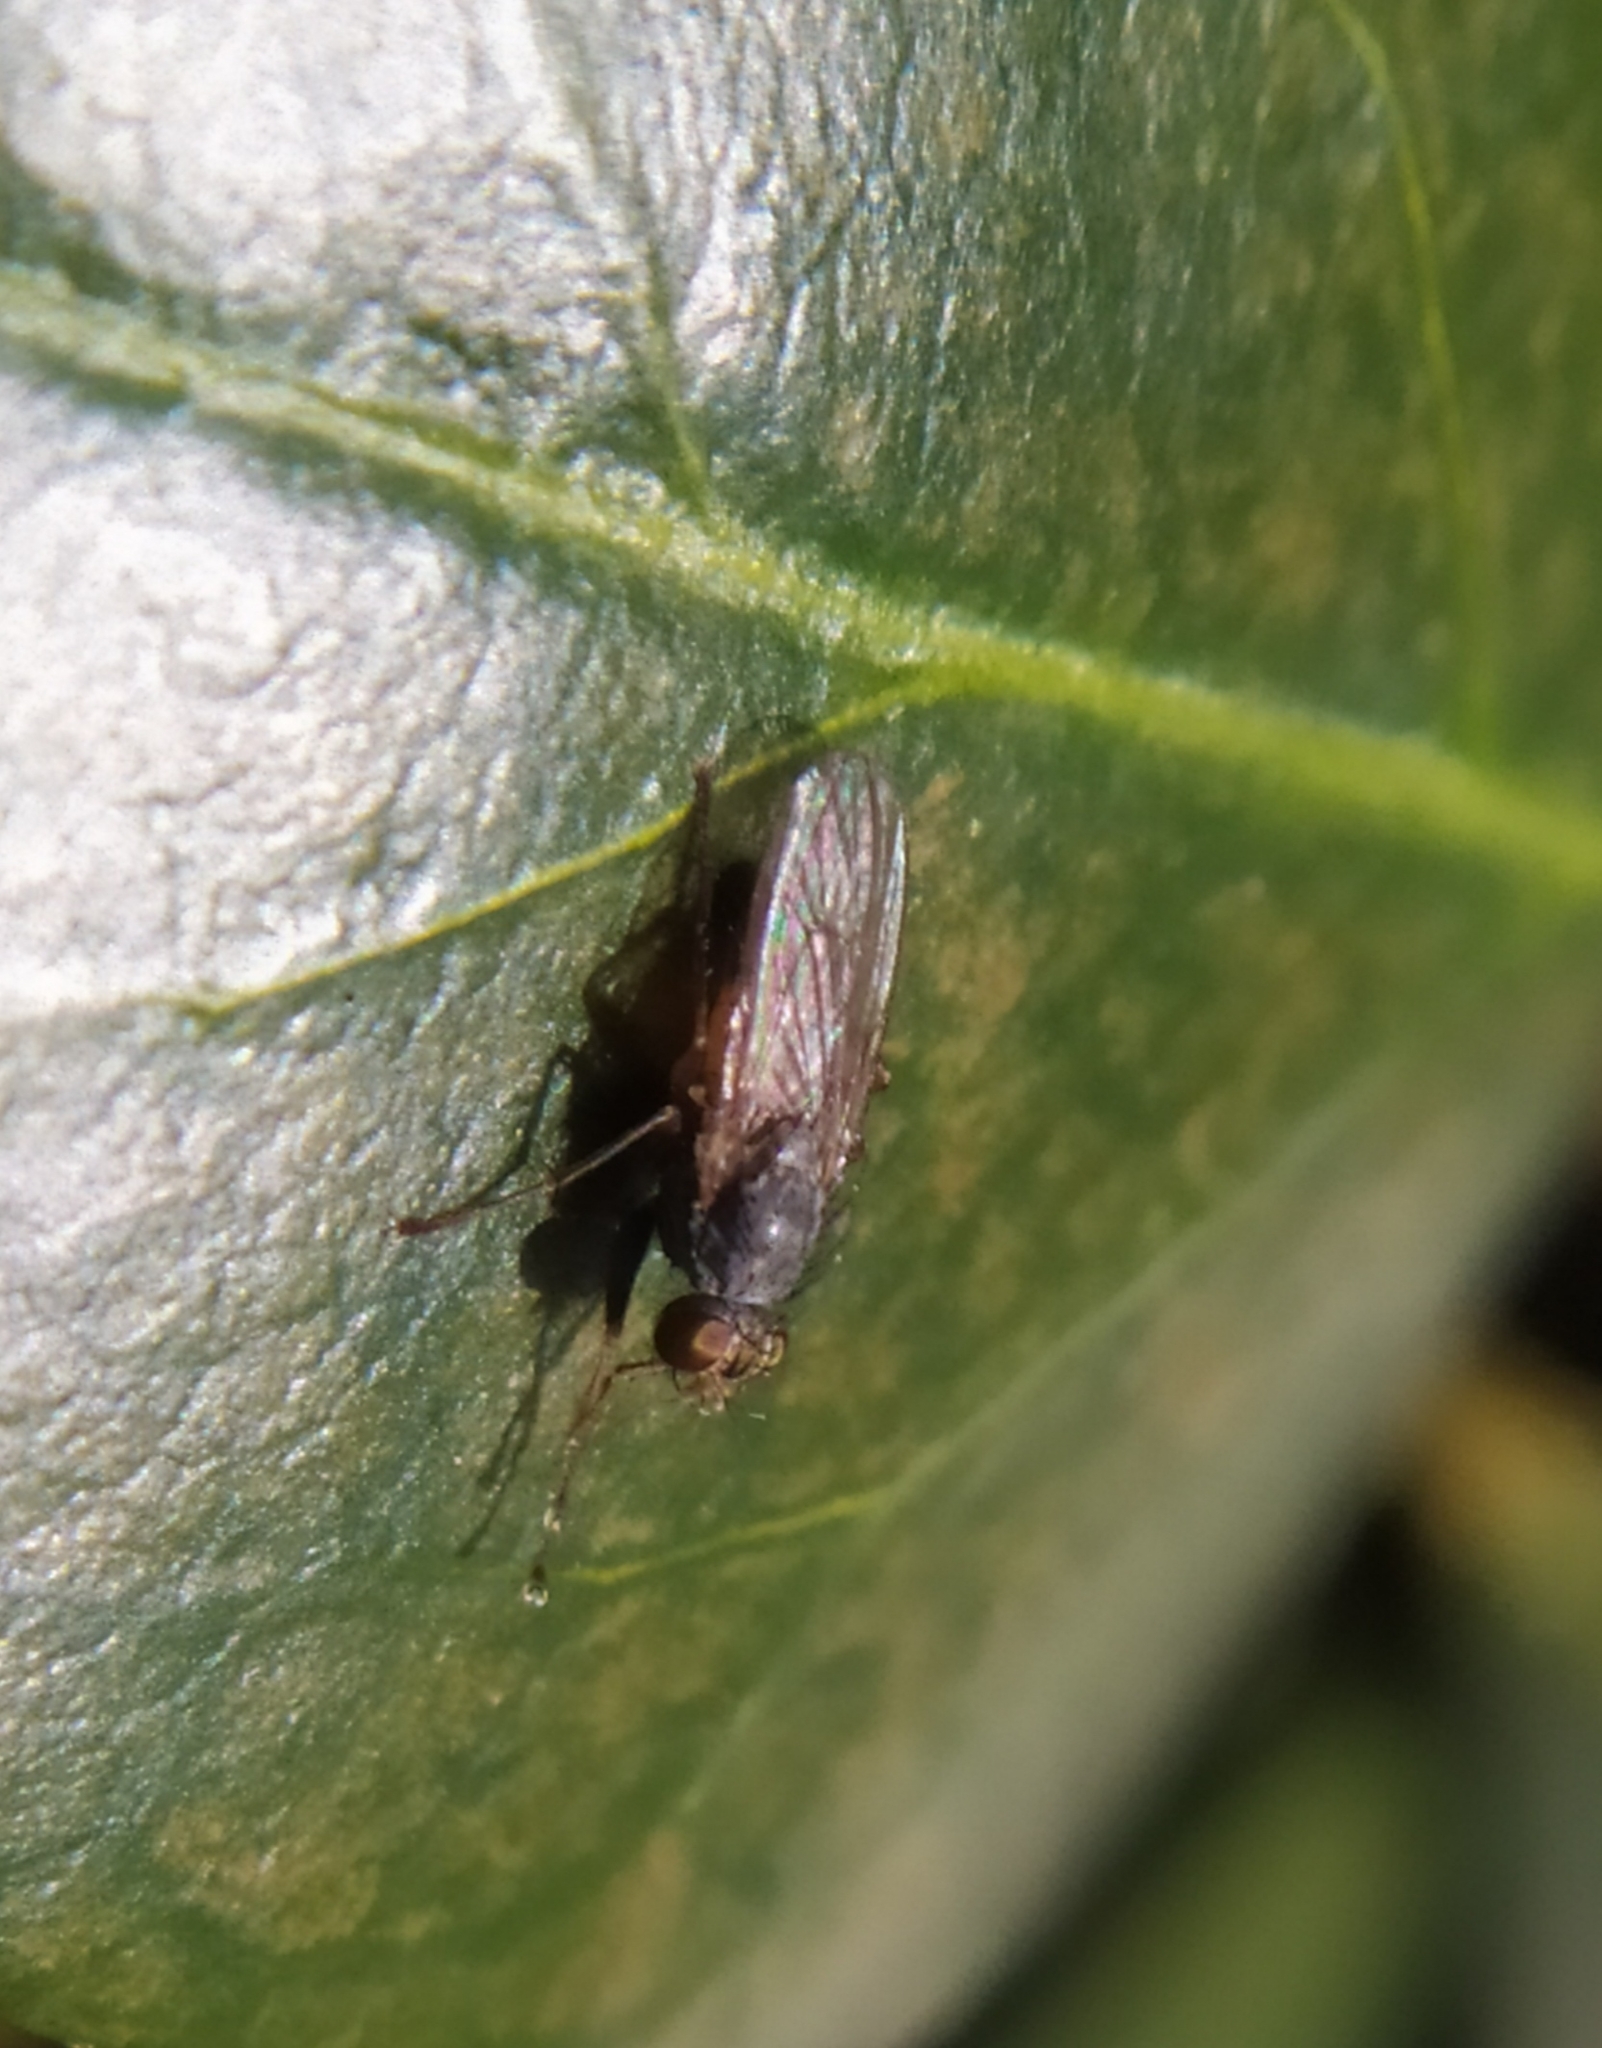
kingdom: Animalia
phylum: Arthropoda
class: Insecta
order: Diptera
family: Muscidae
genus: Lispocephala
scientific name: Lispocephala brachialis
